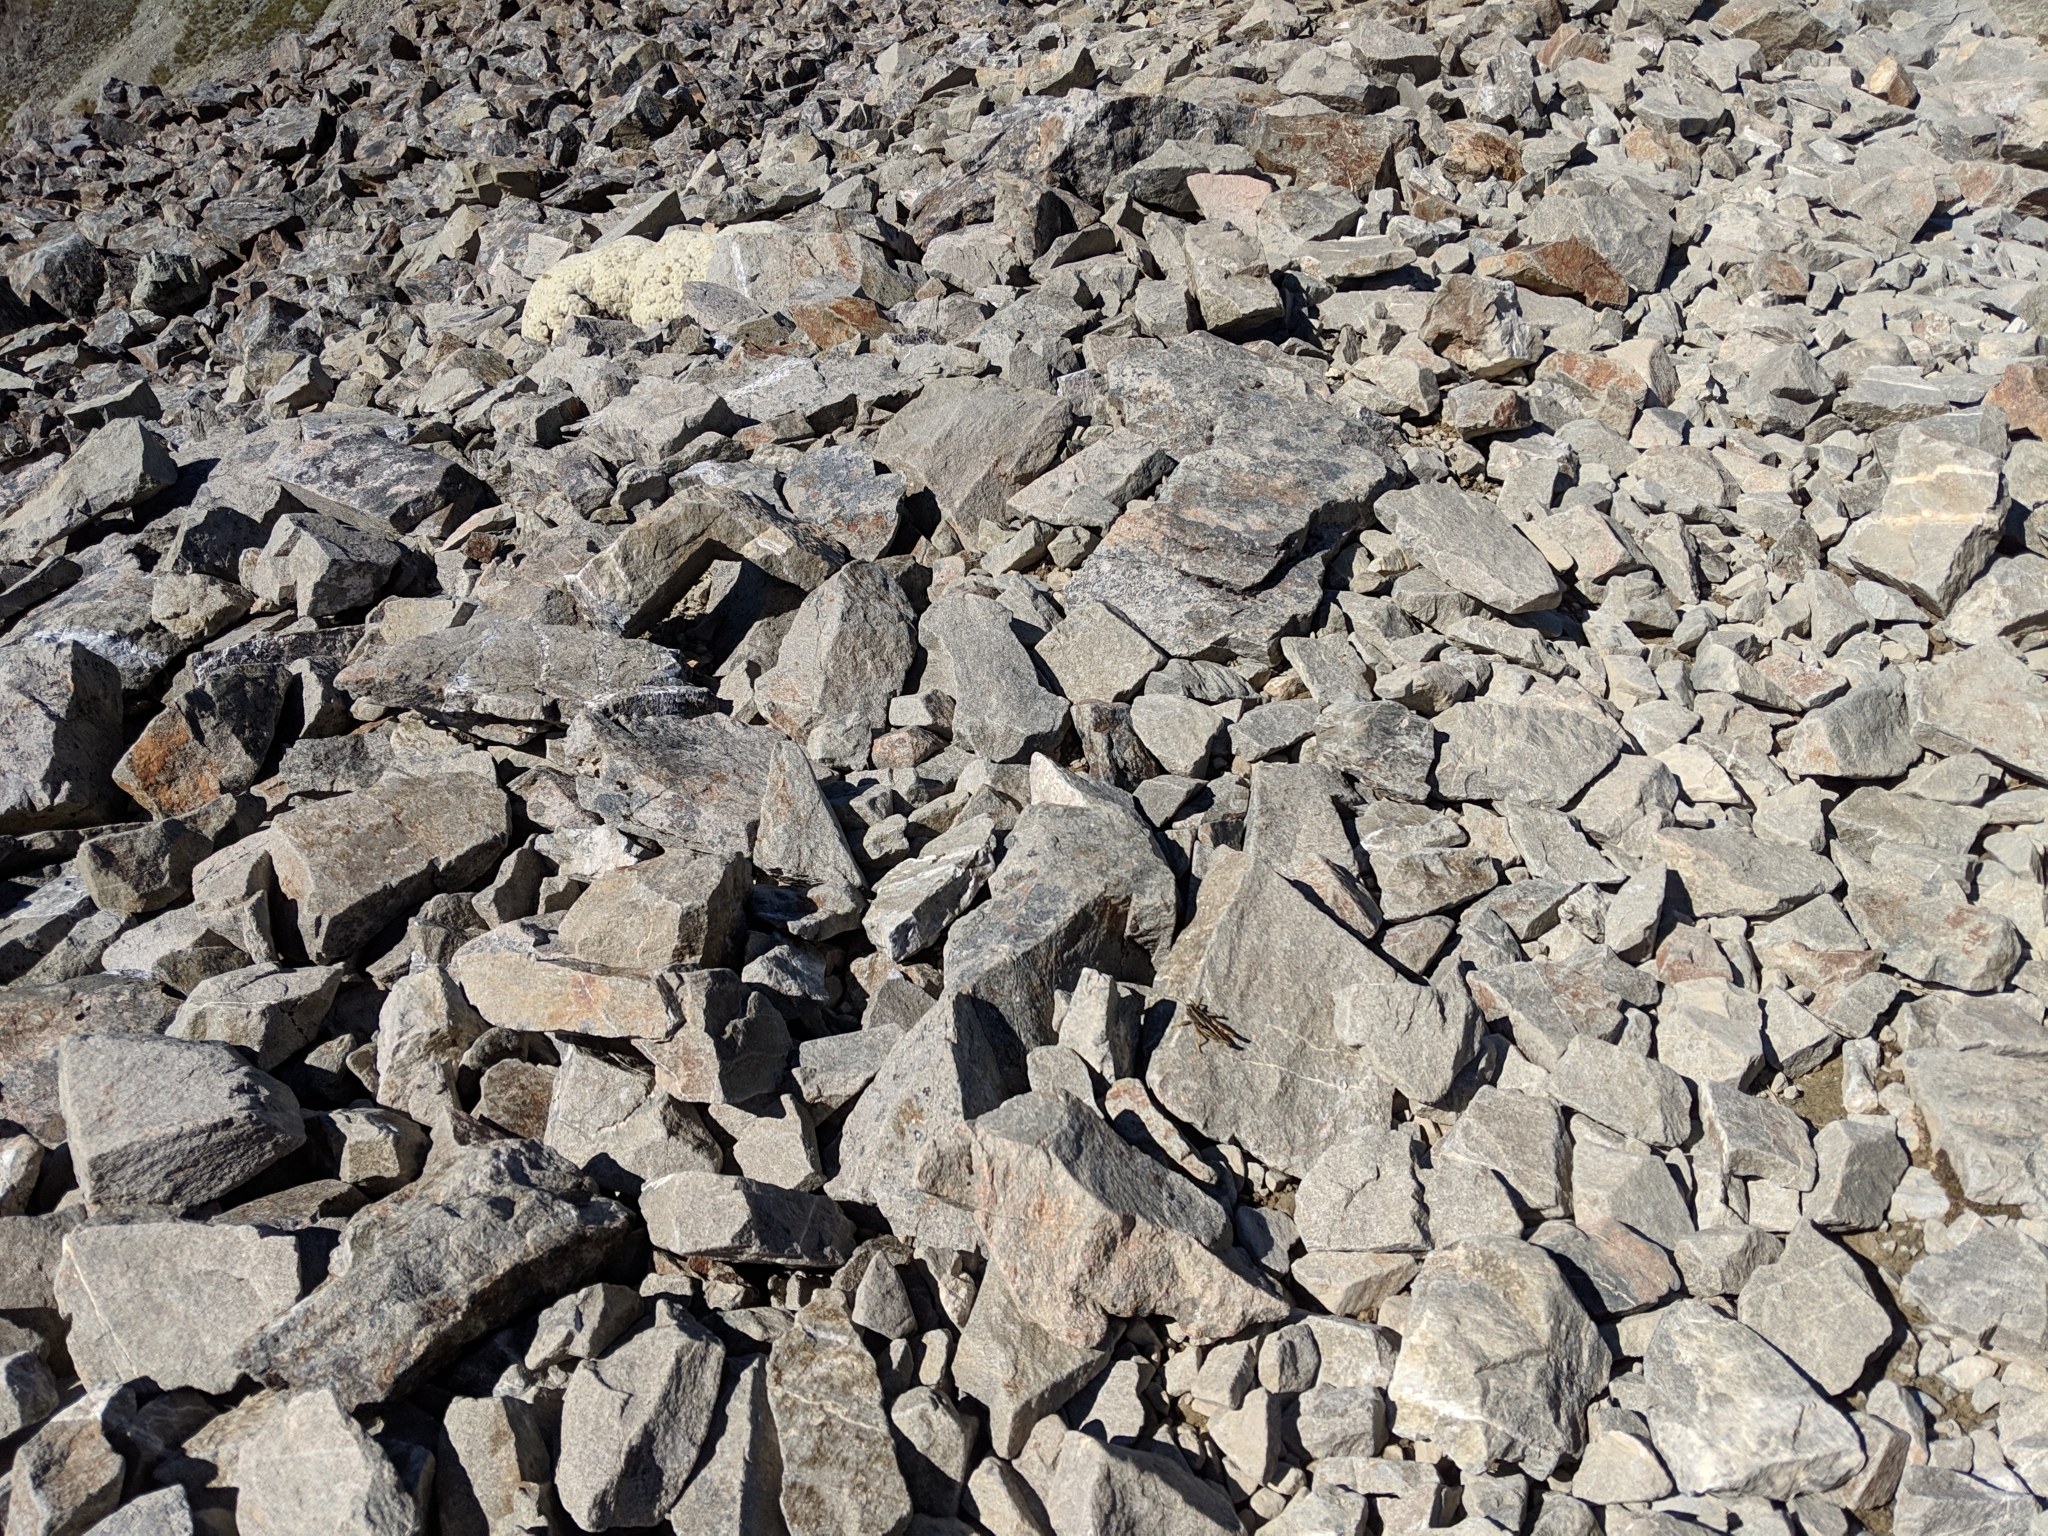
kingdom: Plantae
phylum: Tracheophyta
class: Magnoliopsida
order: Asterales
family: Asteraceae
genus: Haastia
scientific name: Haastia pulvinaris
